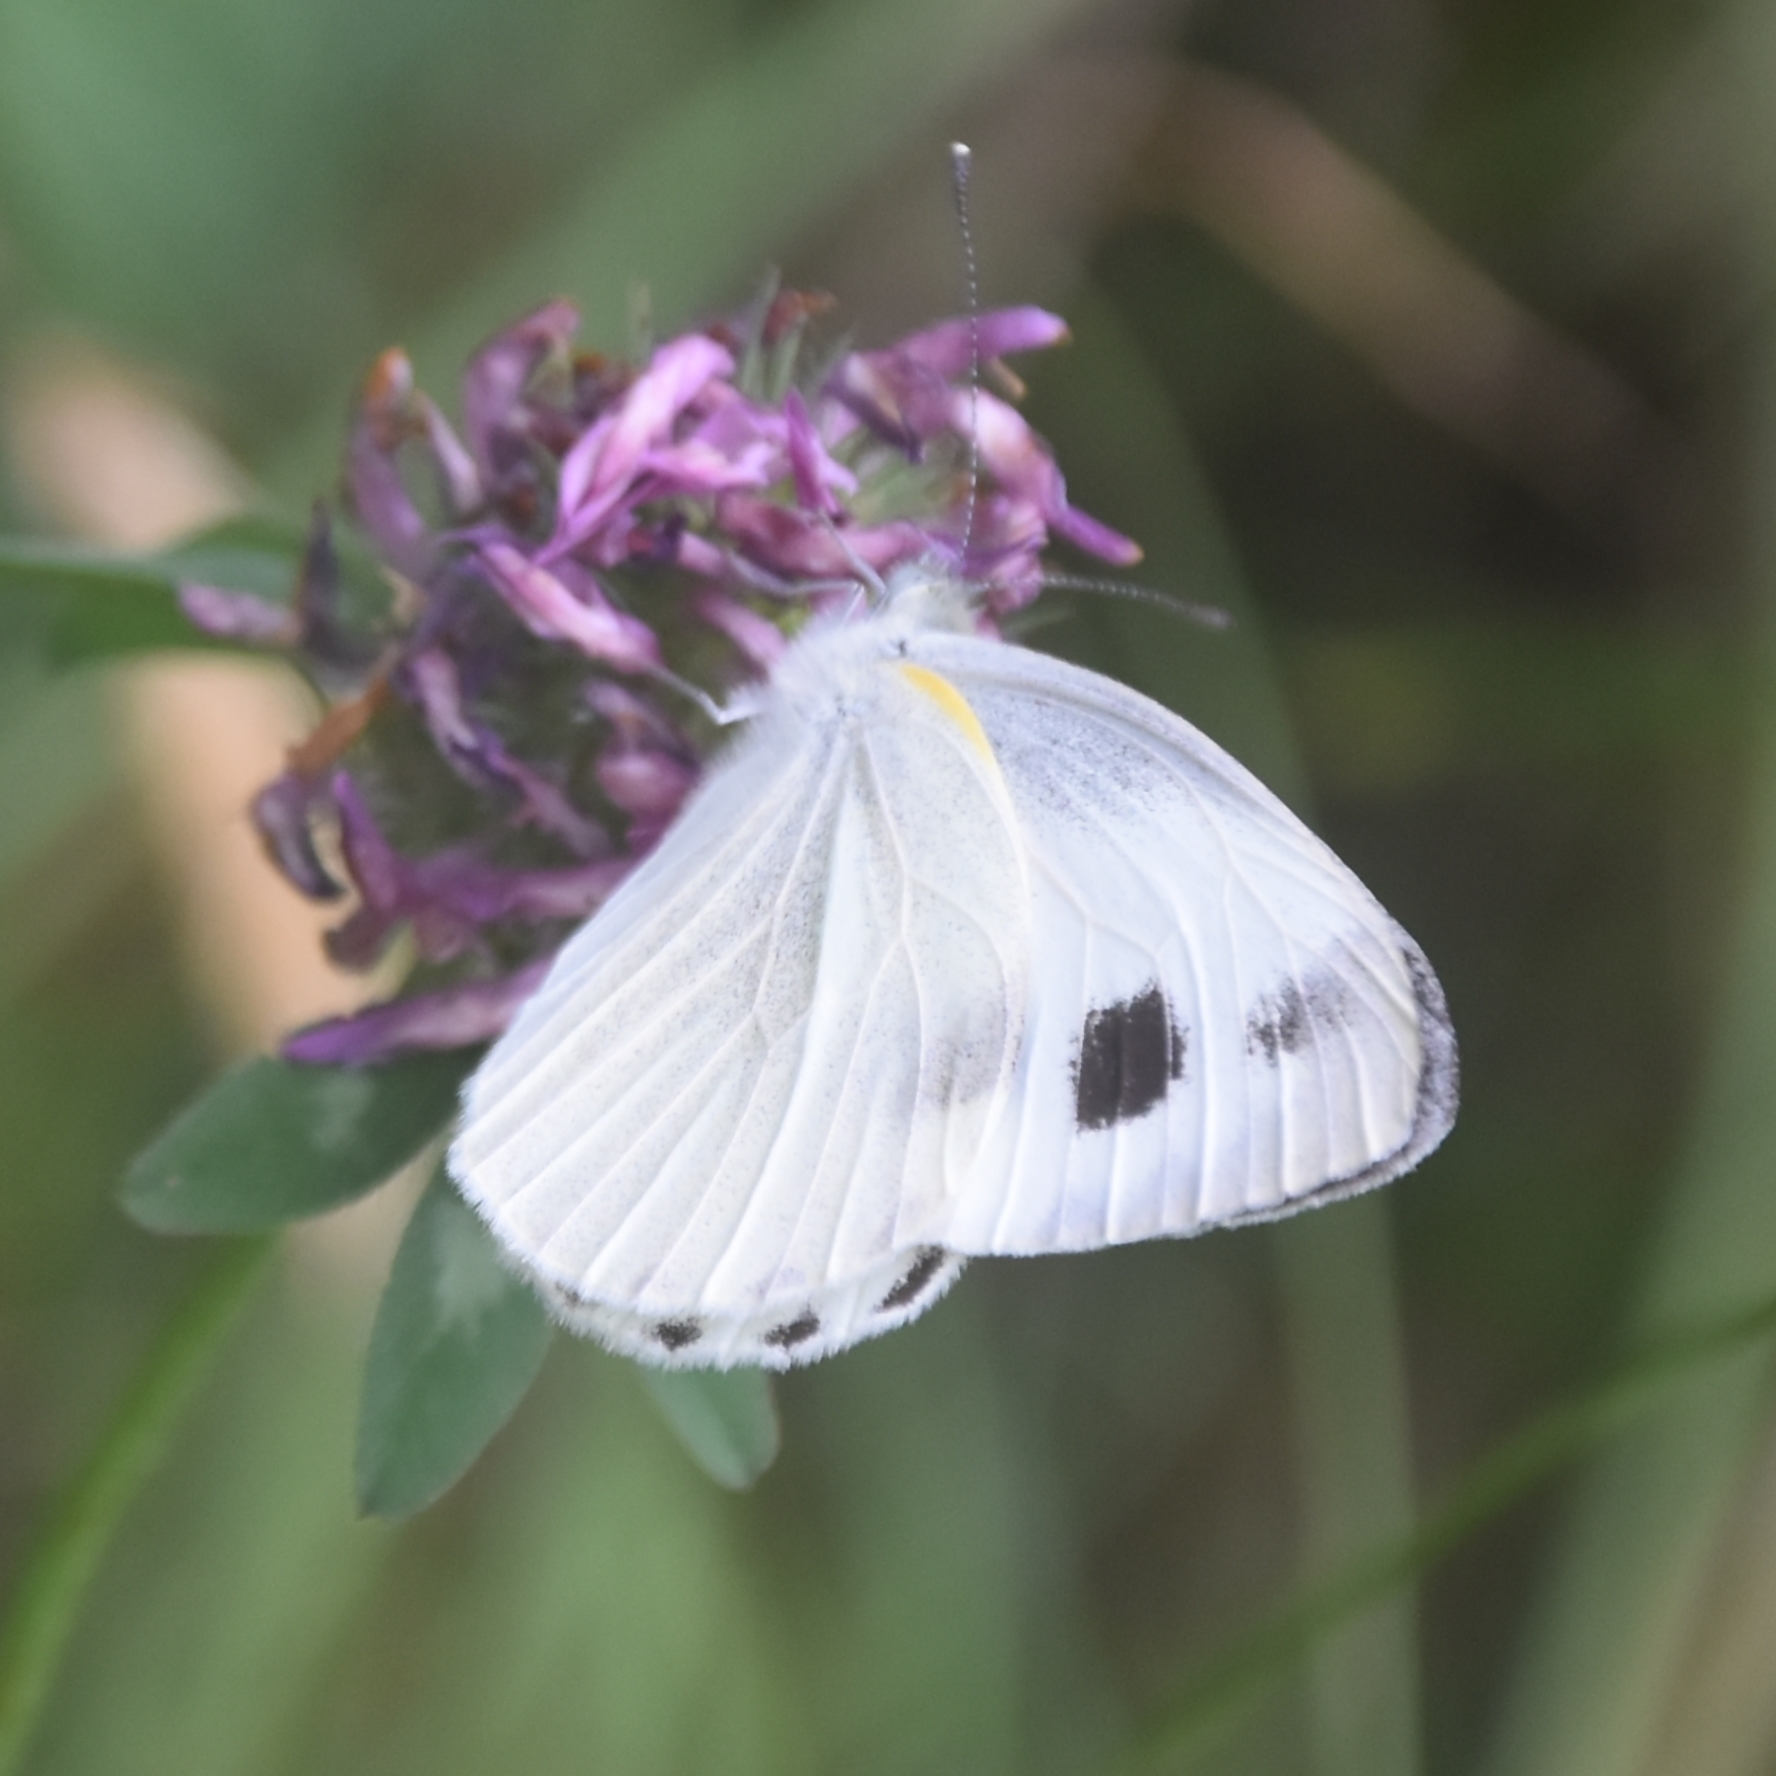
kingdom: Animalia
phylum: Arthropoda
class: Insecta
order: Lepidoptera
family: Pieridae
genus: Pieris
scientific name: Pieris canidia
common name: Indian cabbage white
